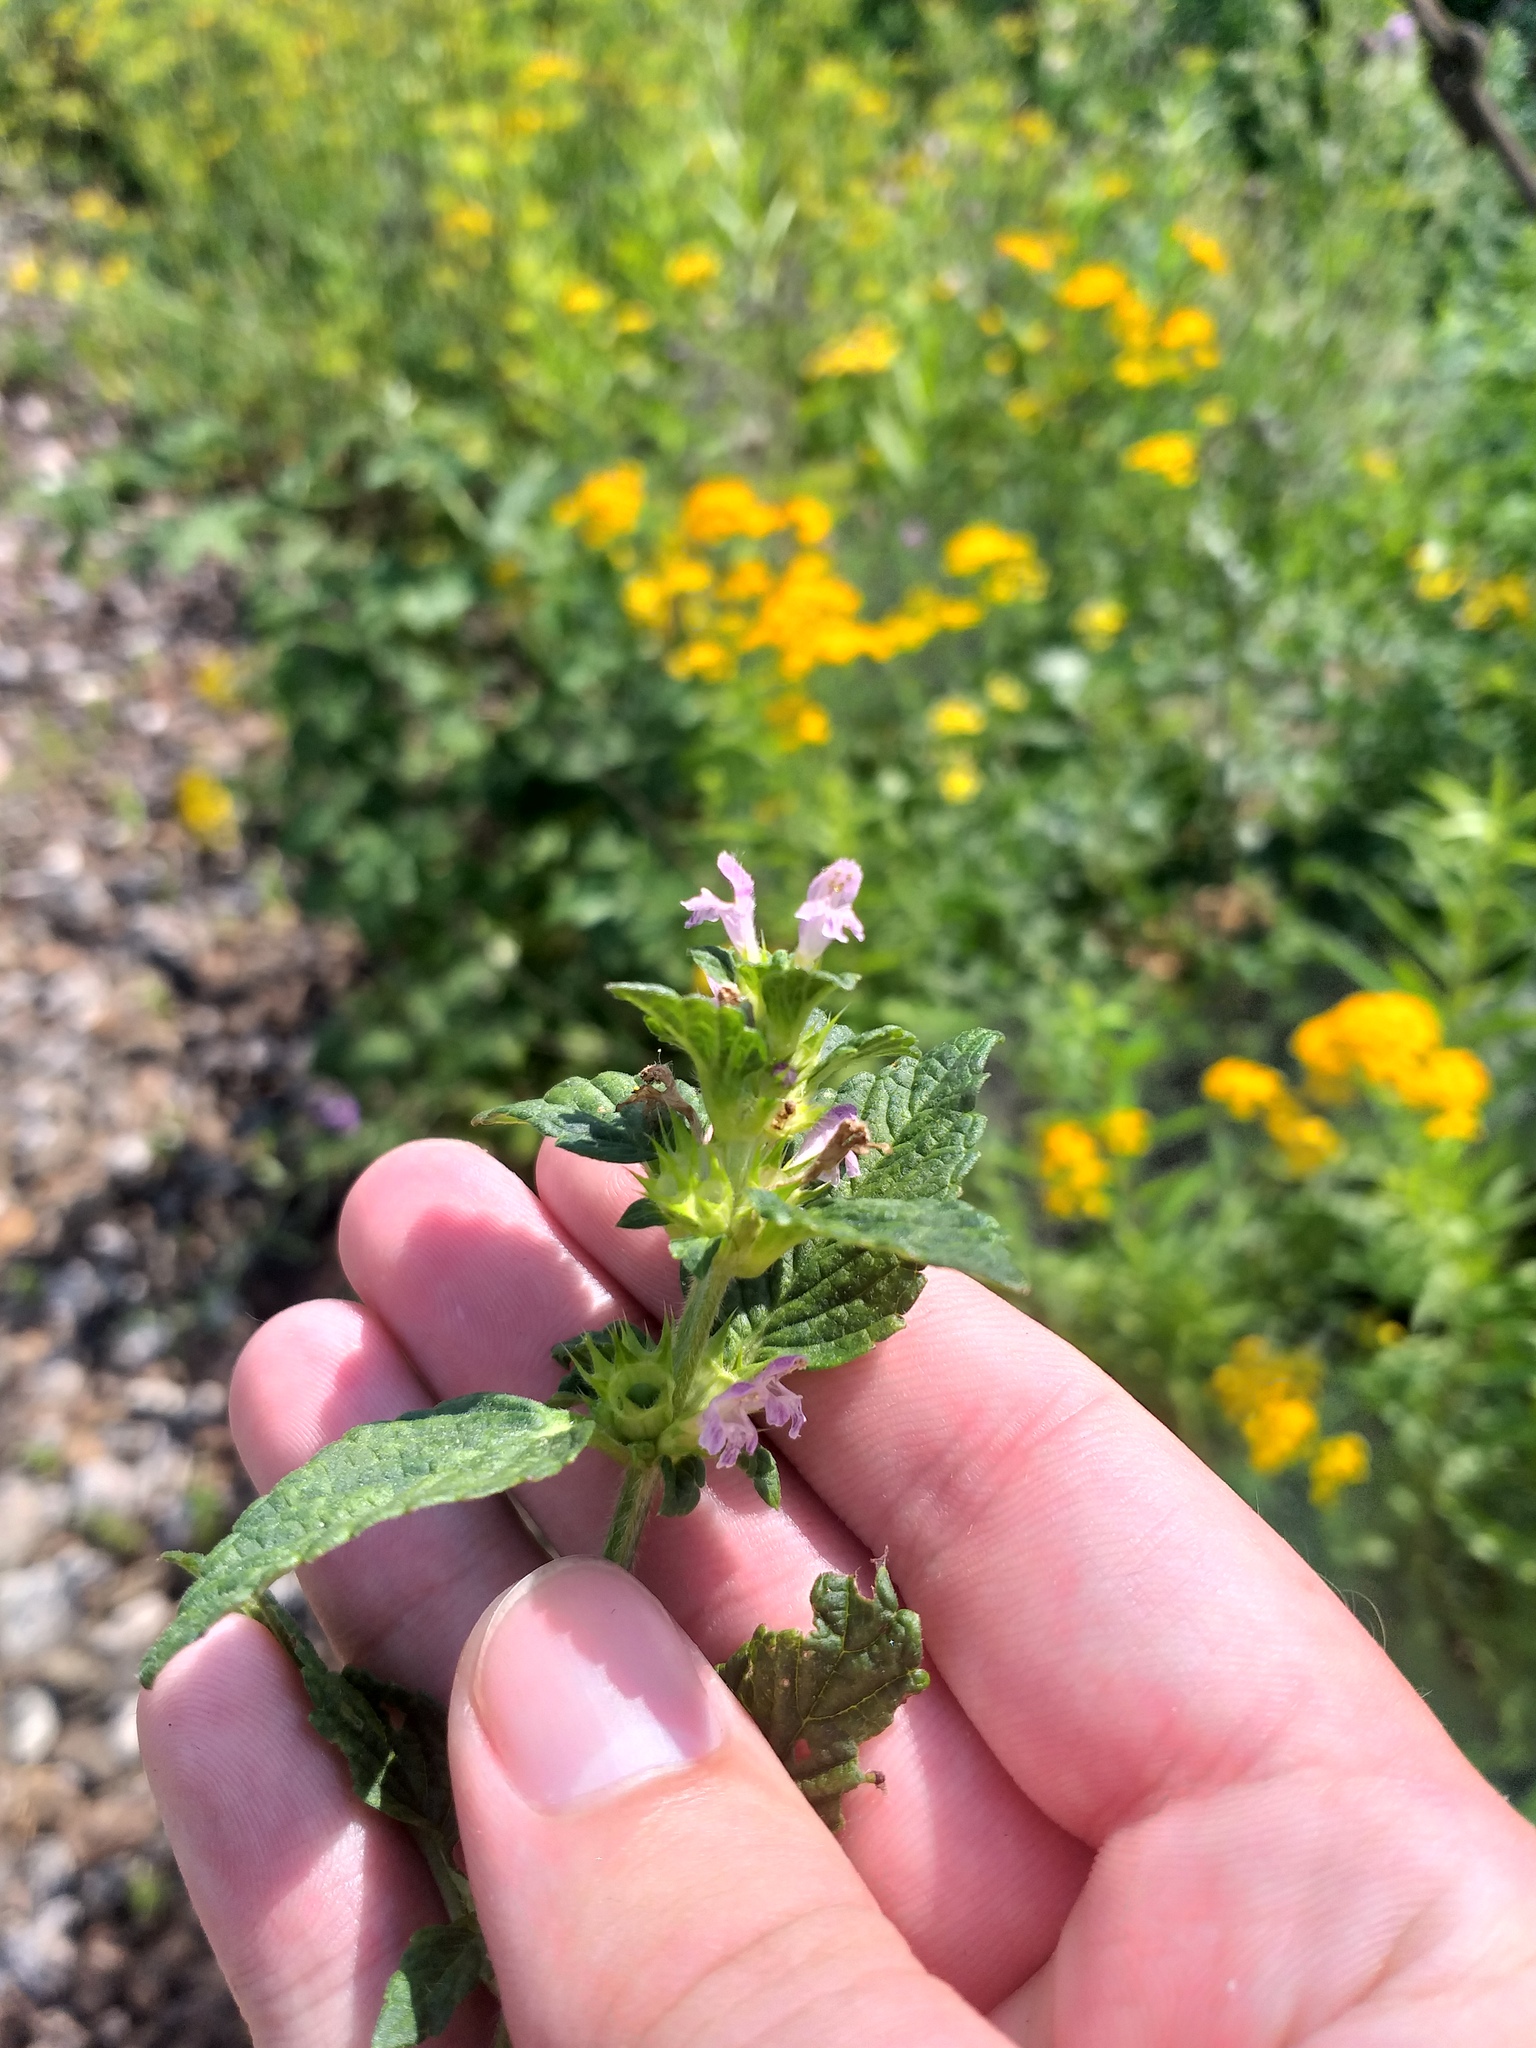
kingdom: Plantae
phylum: Tracheophyta
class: Magnoliopsida
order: Lamiales
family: Lamiaceae
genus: Galeopsis
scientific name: Galeopsis bifida
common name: Bifid hemp-nettle
